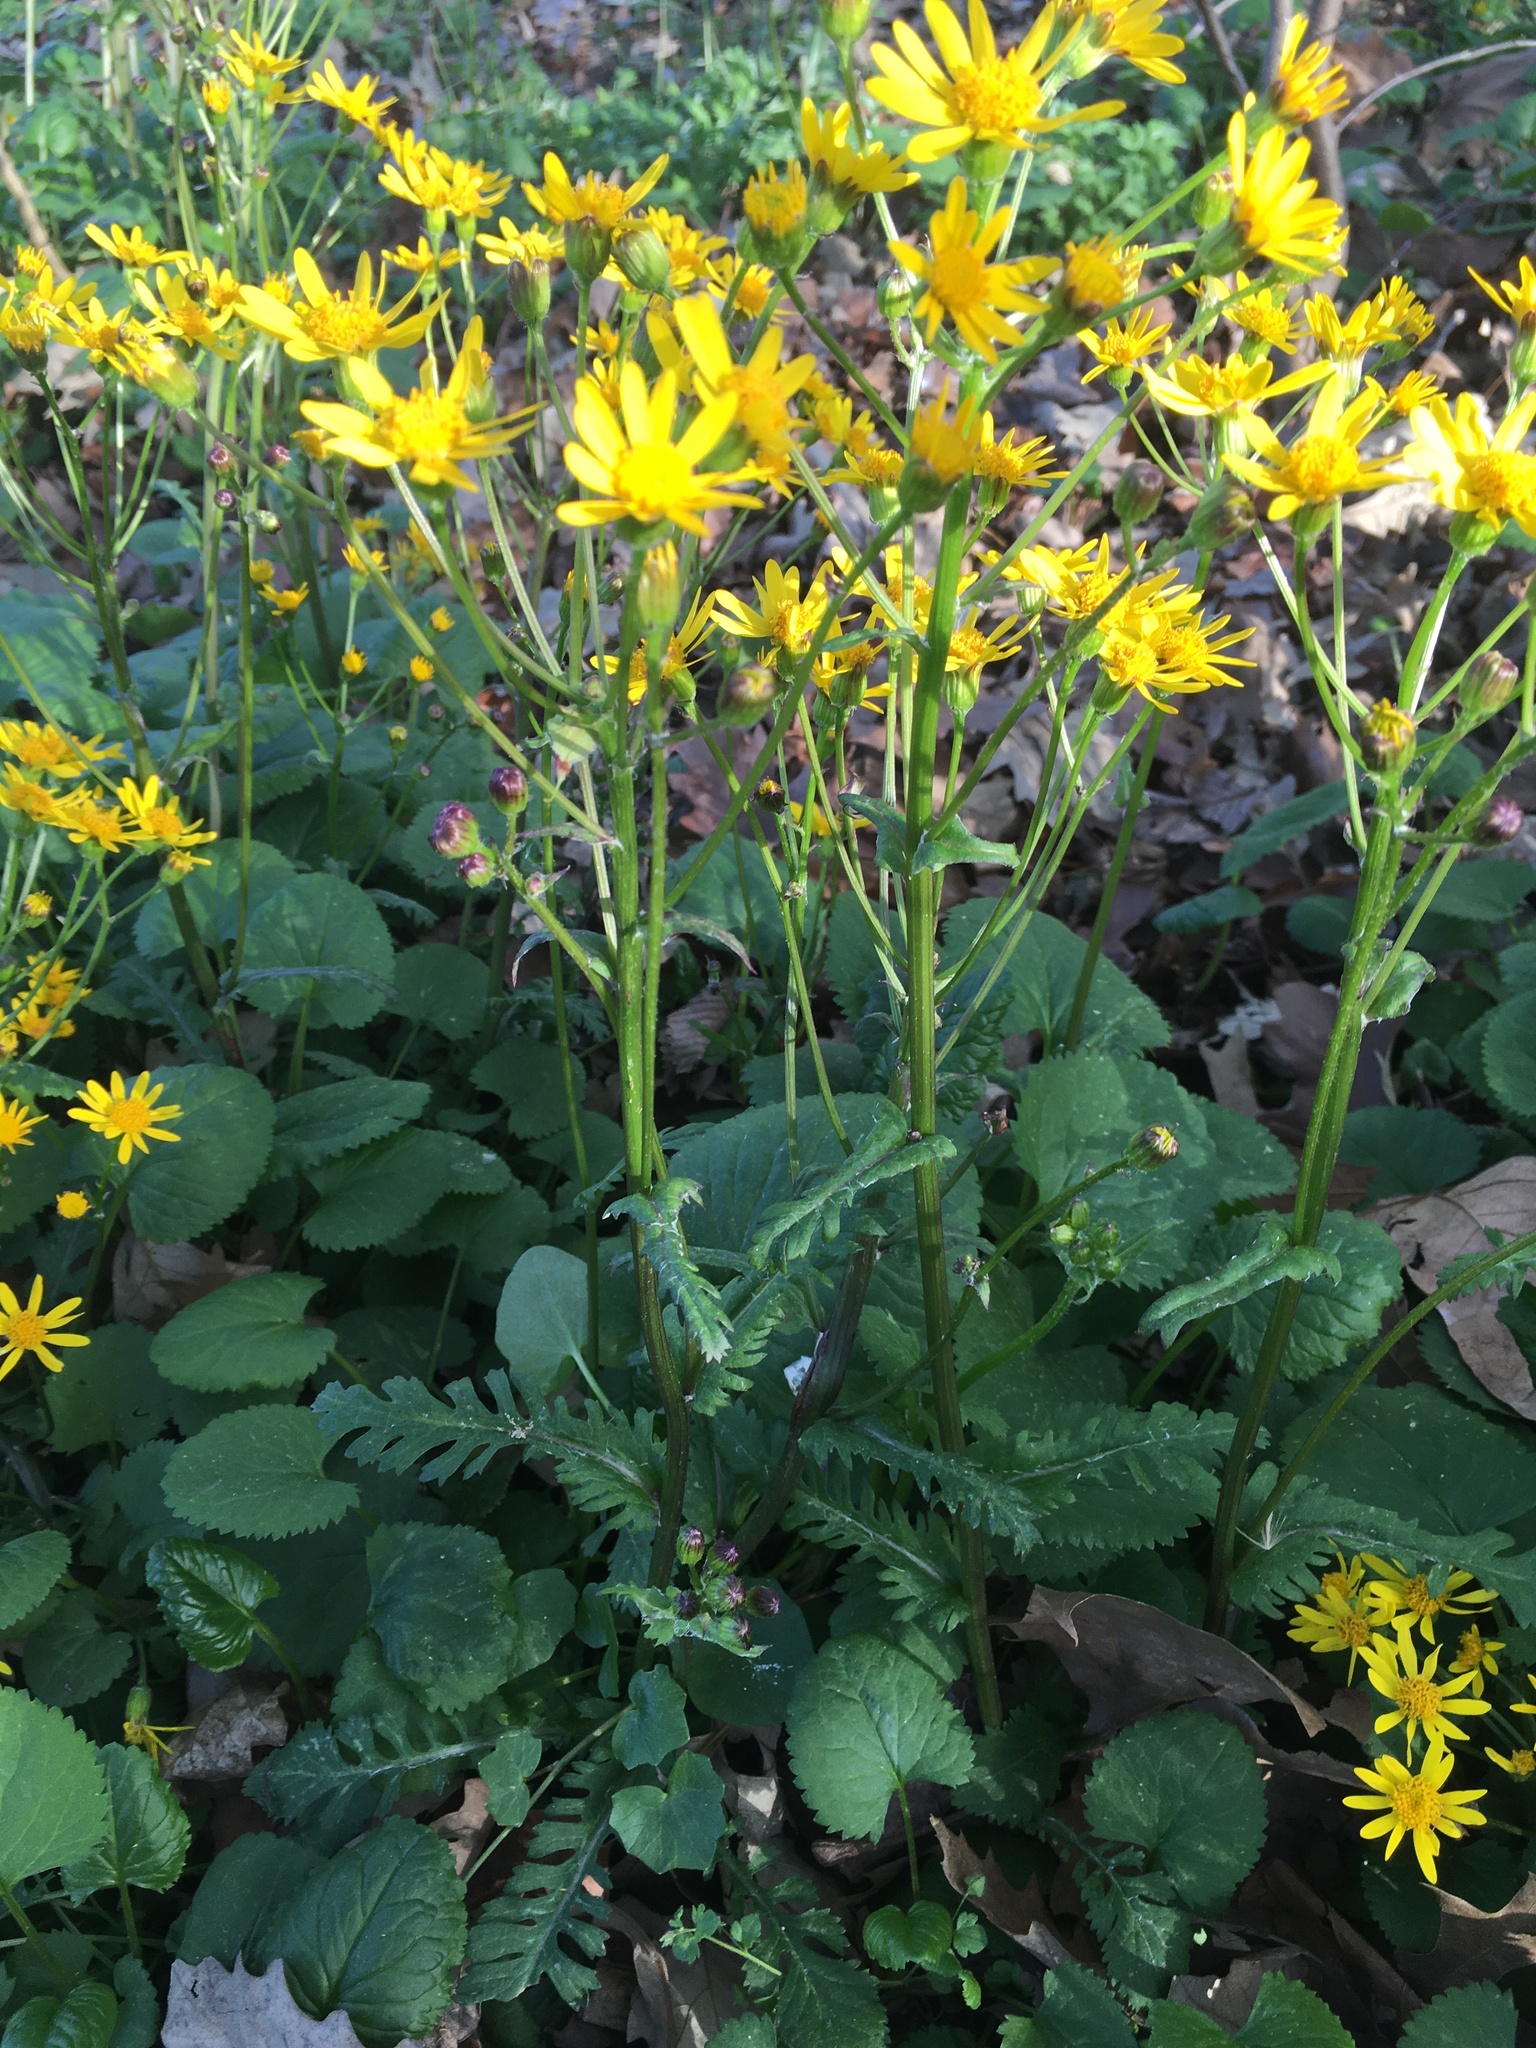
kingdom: Plantae
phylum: Tracheophyta
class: Magnoliopsida
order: Asterales
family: Asteraceae
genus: Packera
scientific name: Packera aurea
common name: Golden groundsel
